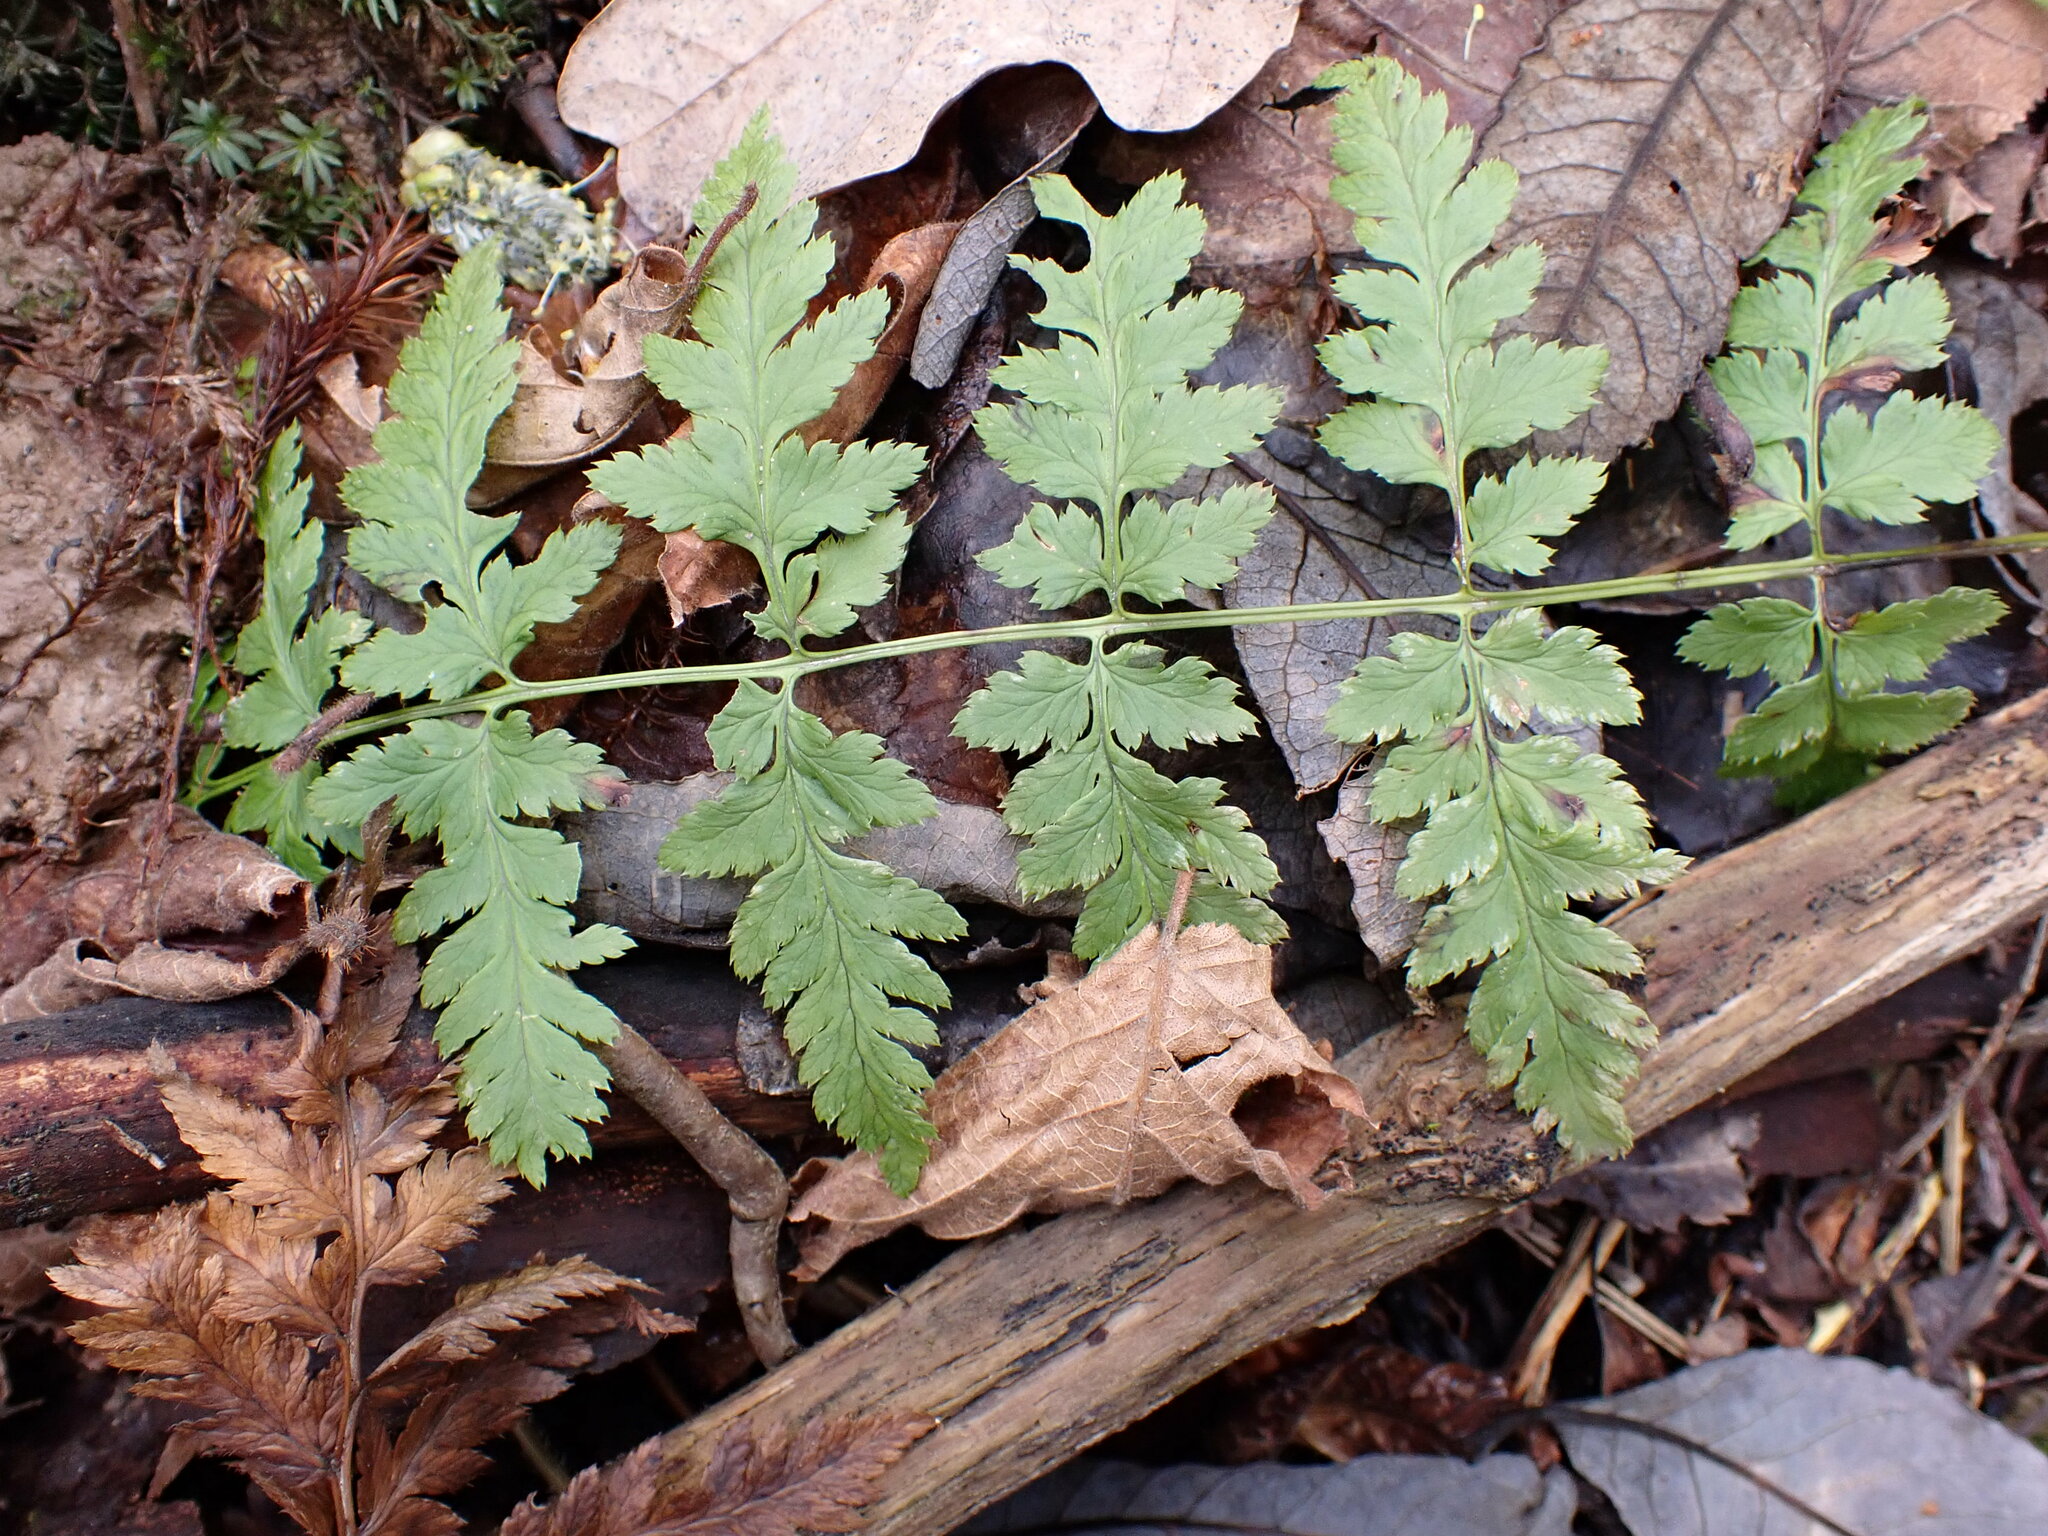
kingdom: Plantae
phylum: Tracheophyta
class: Polypodiopsida
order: Polypodiales
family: Dryopteridaceae
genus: Dryopteris
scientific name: Dryopteris carthusiana
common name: Narrow buckler-fern
